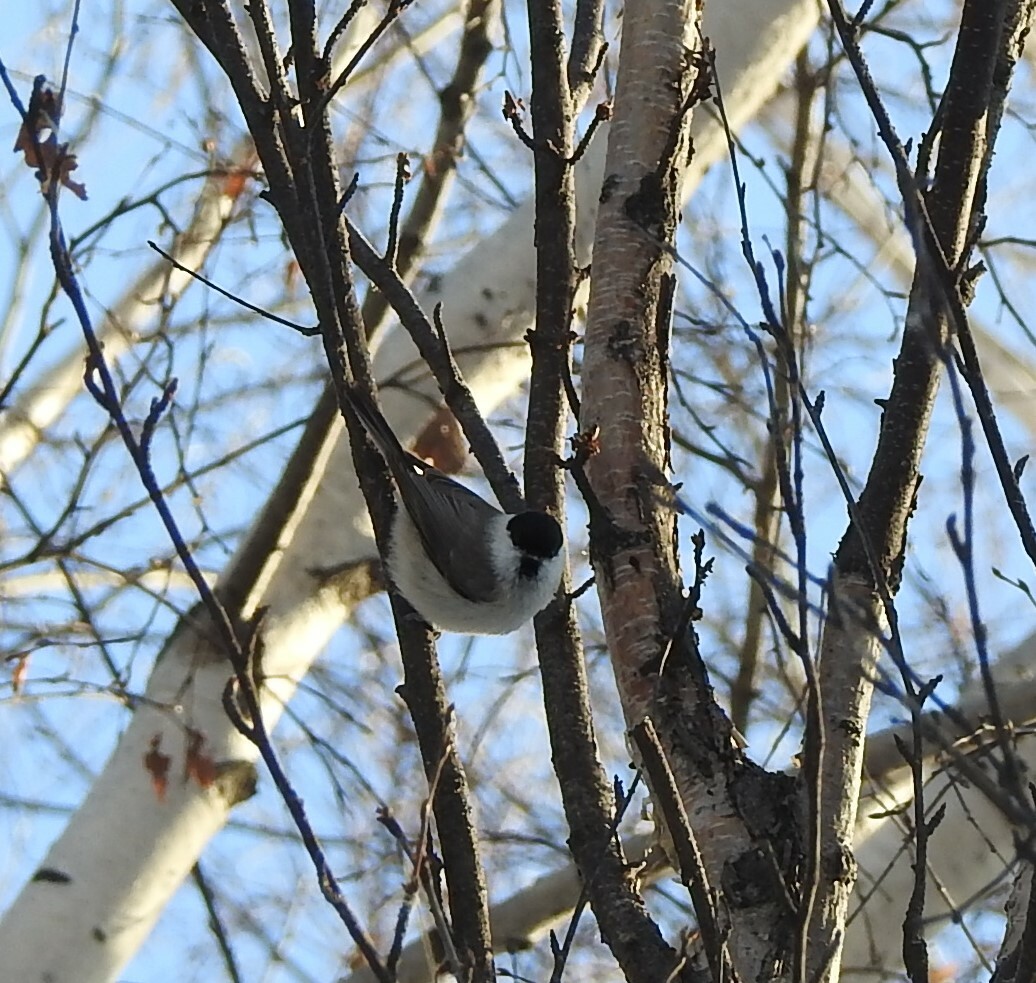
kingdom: Animalia
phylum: Chordata
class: Aves
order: Passeriformes
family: Paridae
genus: Poecile
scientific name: Poecile palustris
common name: Marsh tit
